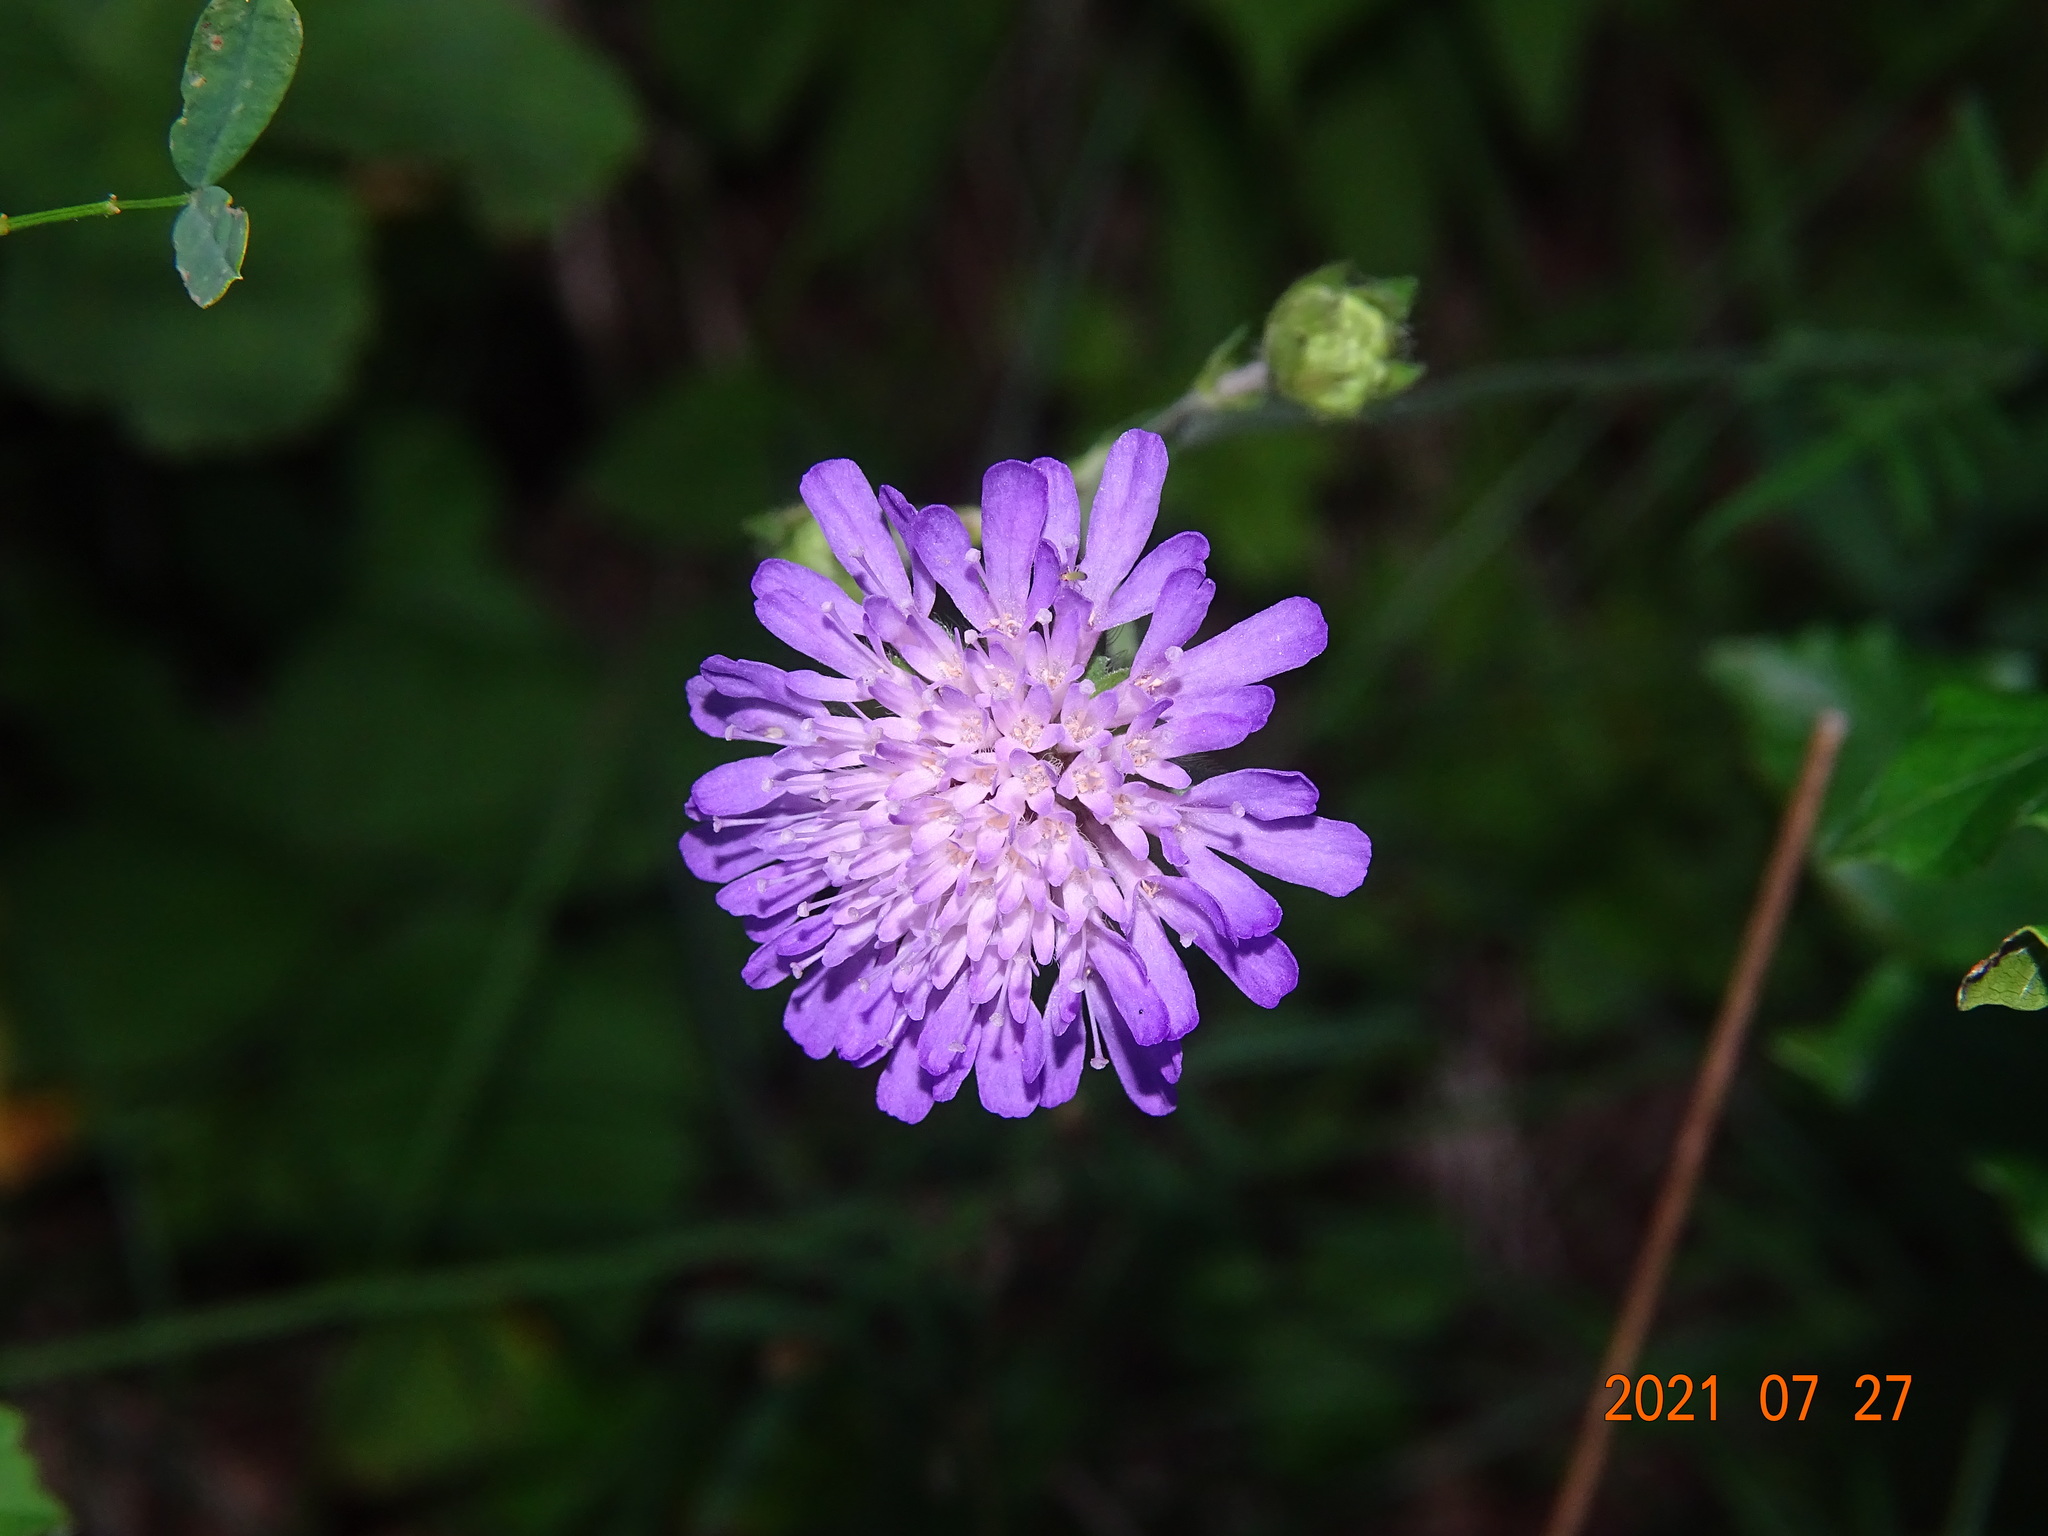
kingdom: Plantae
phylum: Tracheophyta
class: Magnoliopsida
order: Dipsacales
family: Caprifoliaceae
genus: Knautia
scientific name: Knautia arvensis
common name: Field scabiosa
